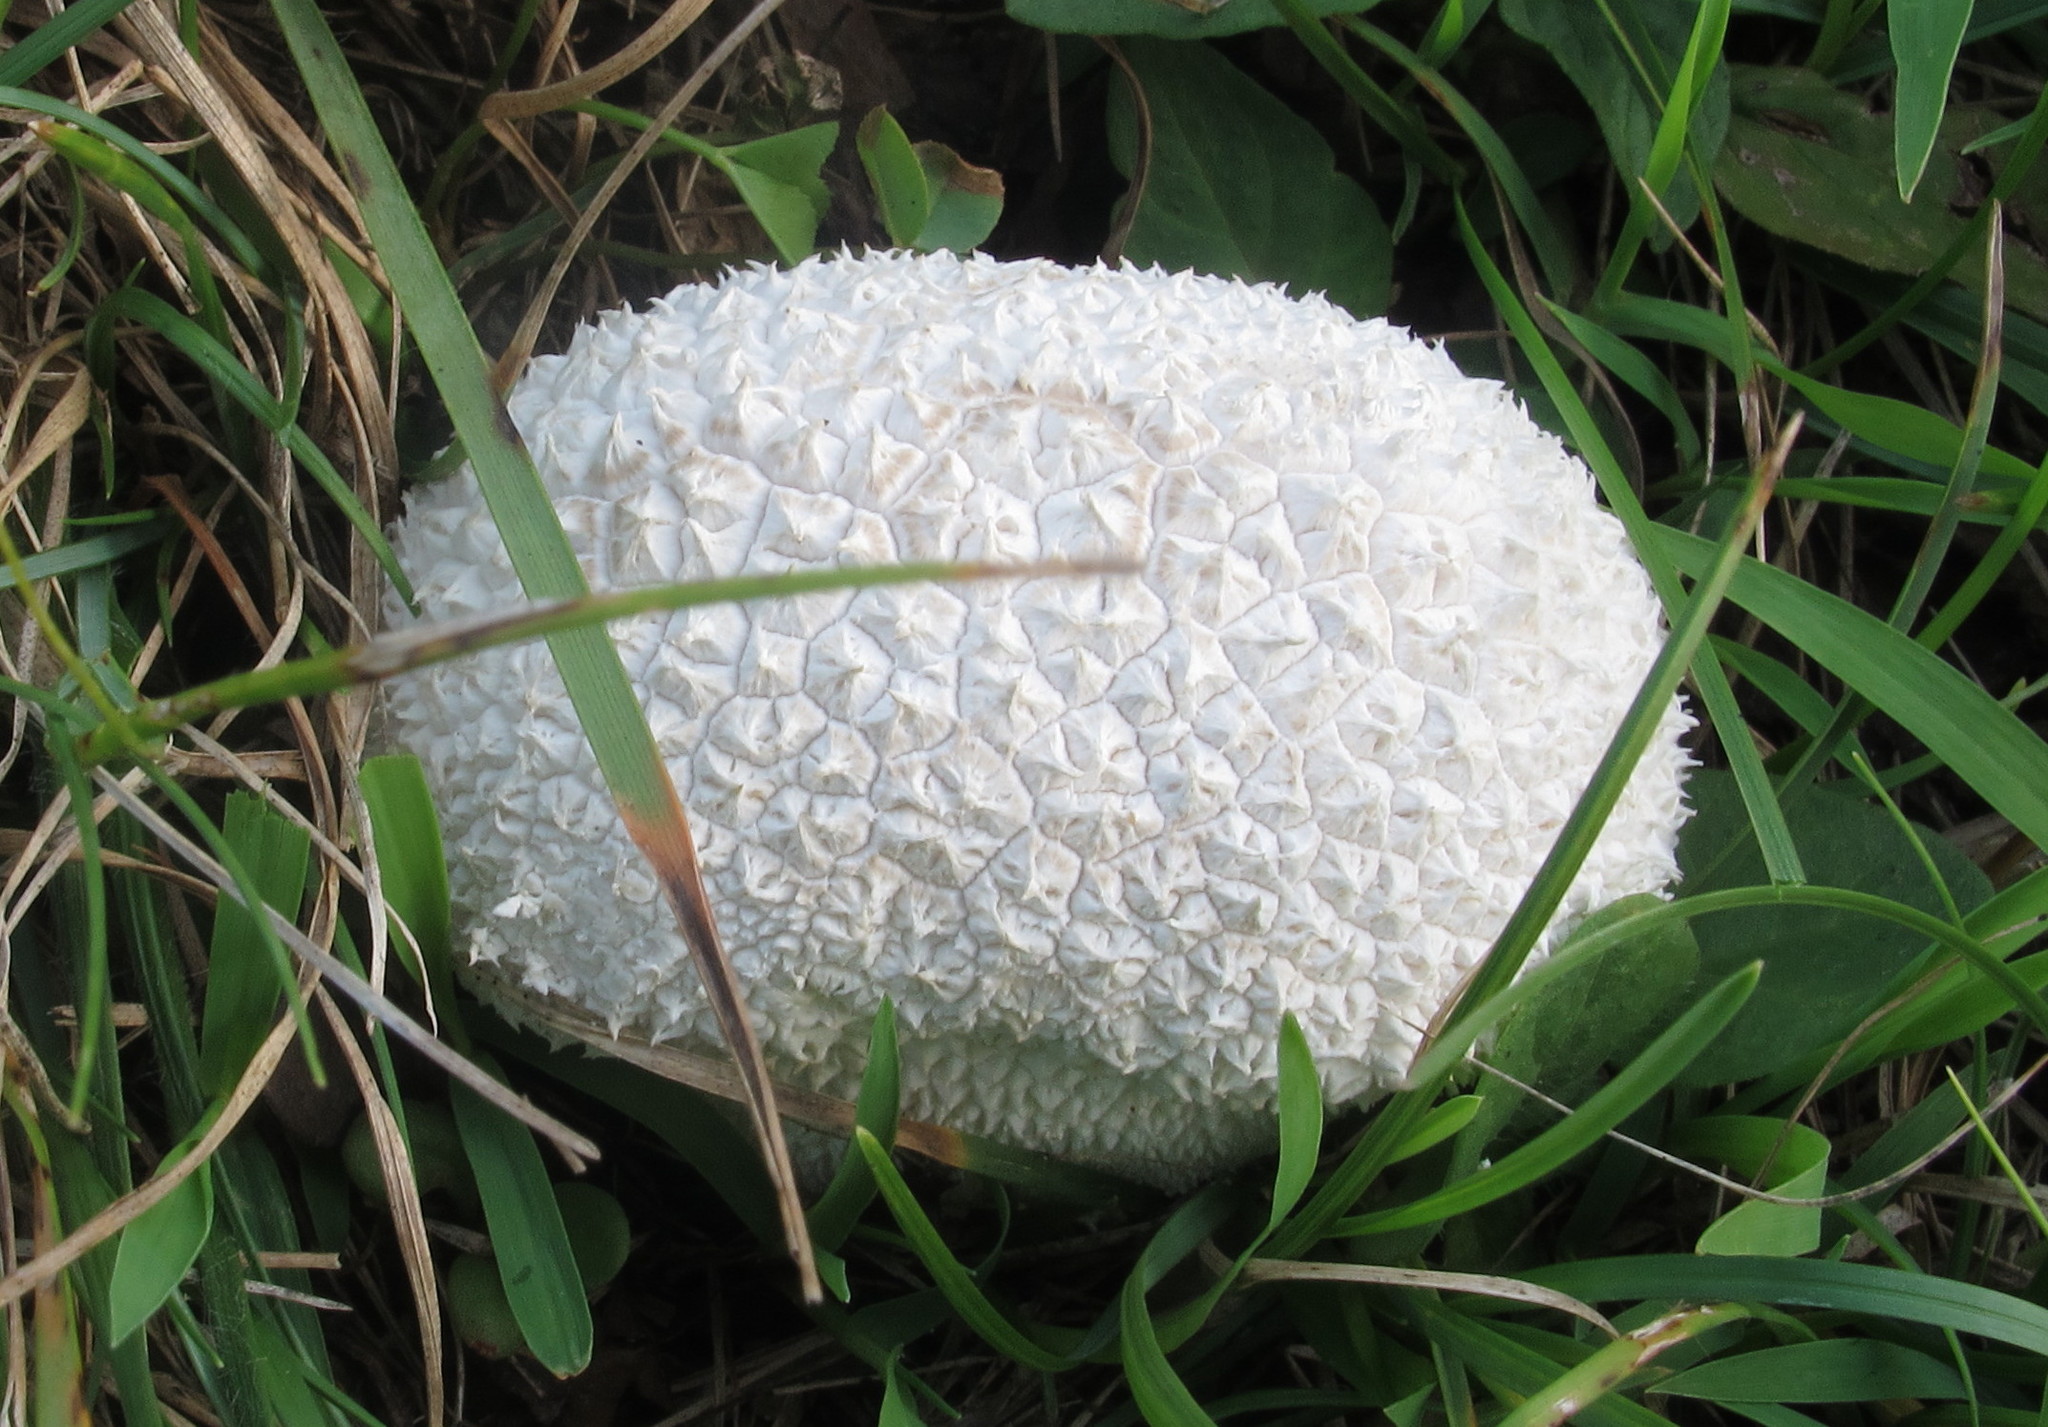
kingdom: Fungi
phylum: Basidiomycota
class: Agaricomycetes
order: Agaricales
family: Agaricaceae
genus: Lycoperdon
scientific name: Lycoperdon marginatum
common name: Peeling puffball
